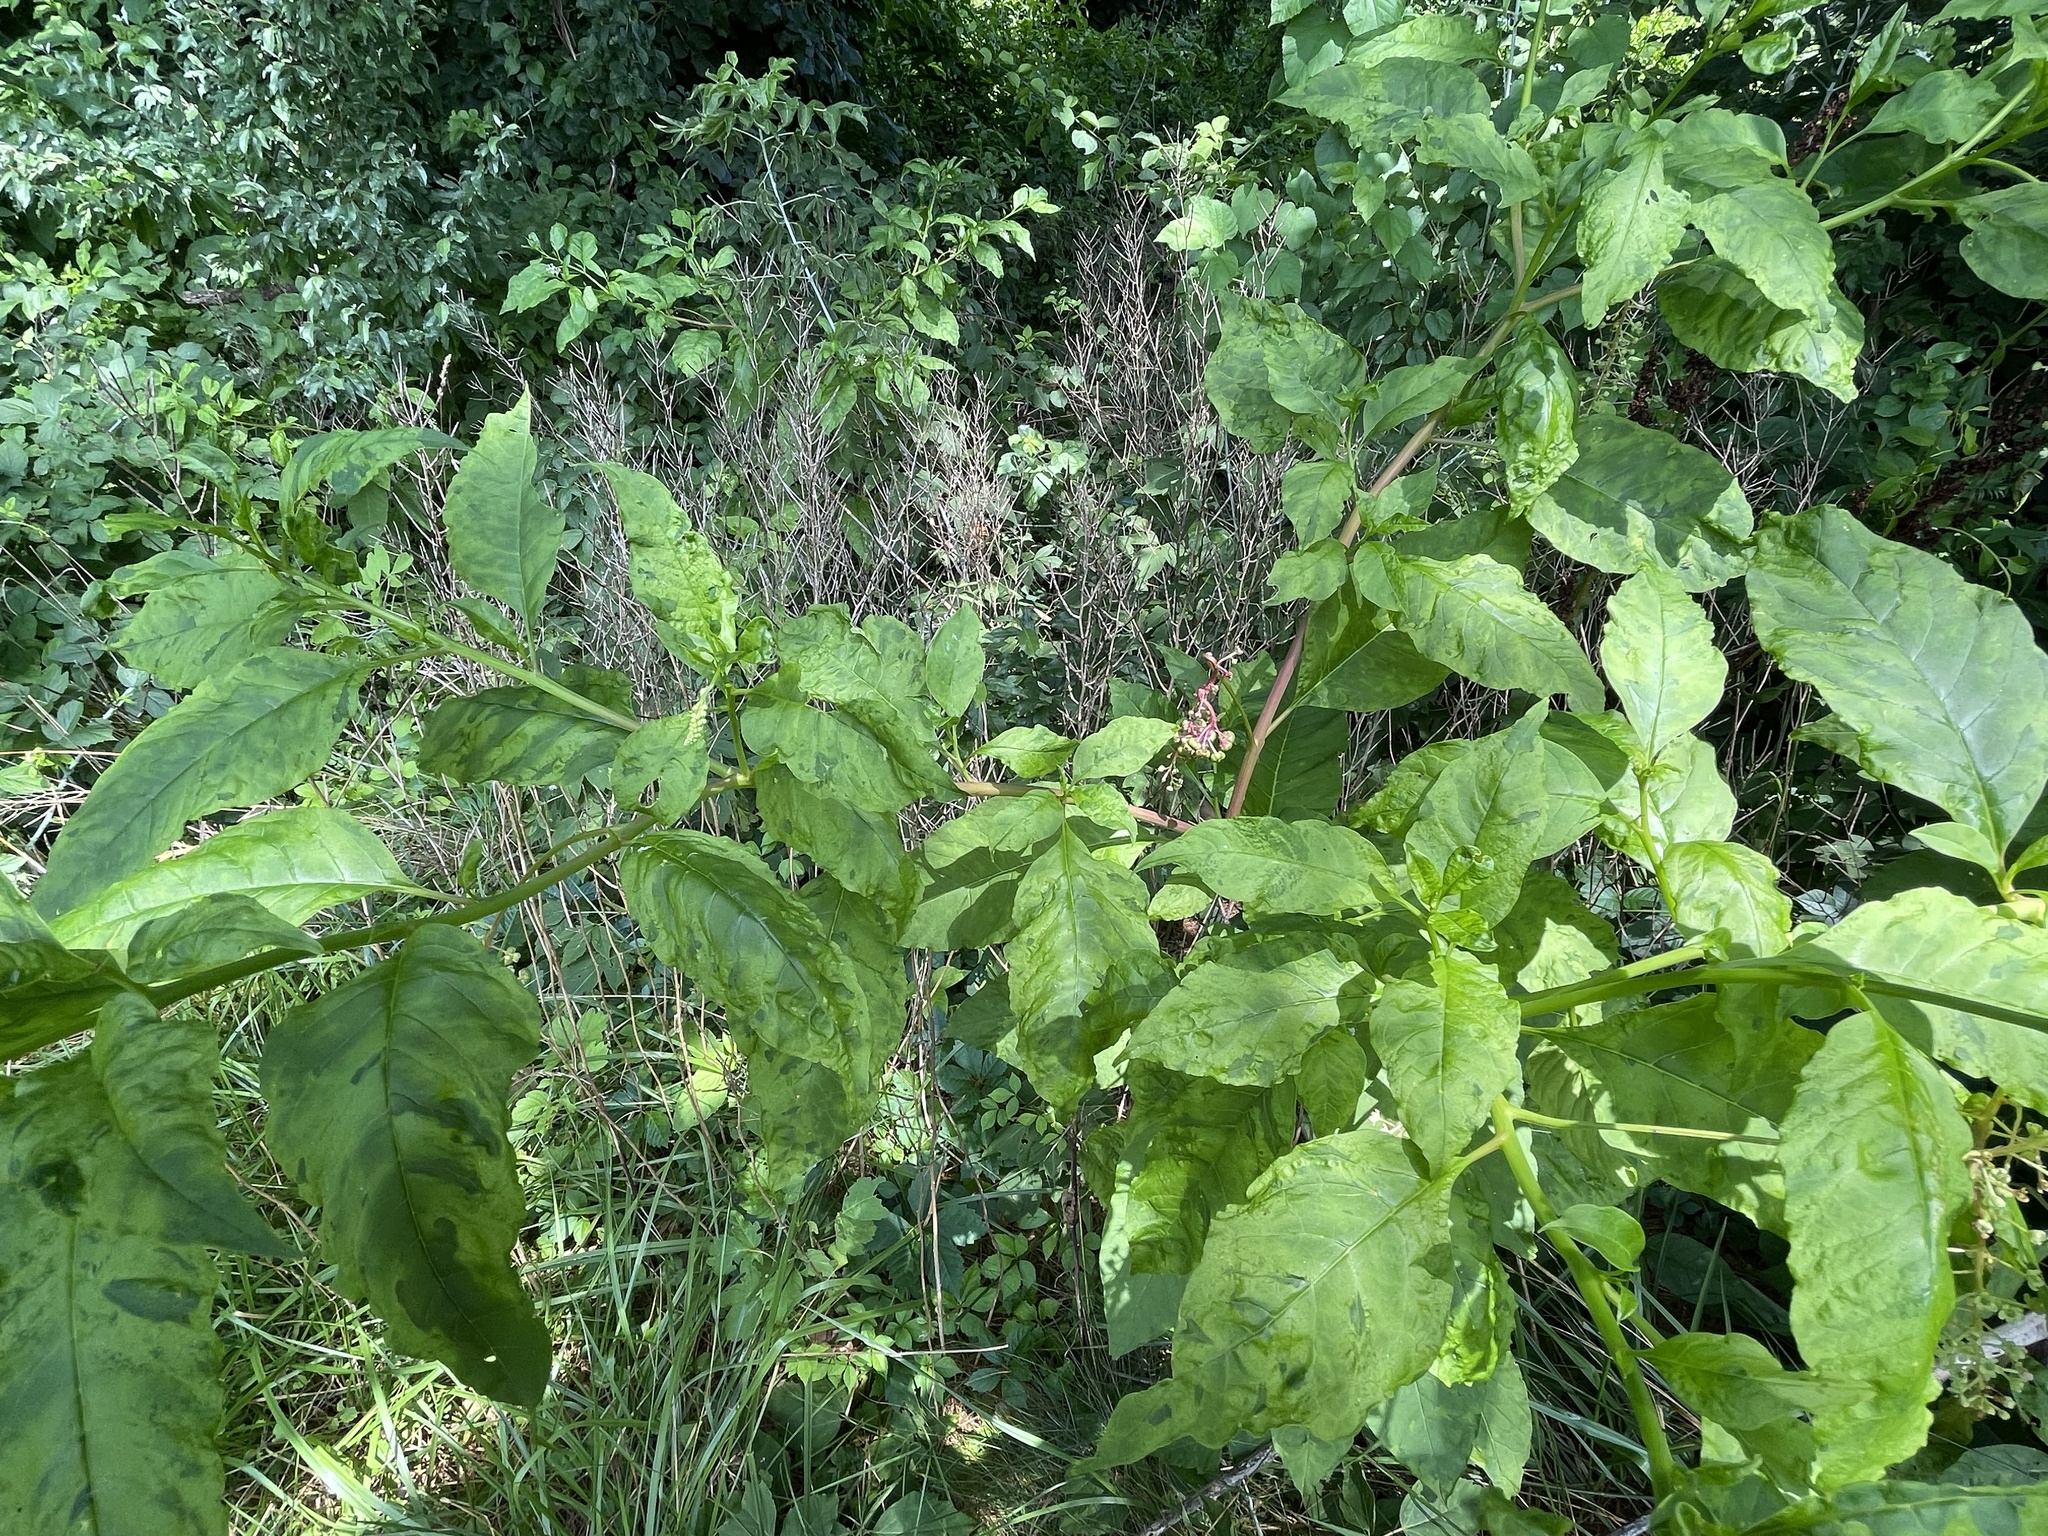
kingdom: Plantae
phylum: Tracheophyta
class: Magnoliopsida
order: Caryophyllales
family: Phytolaccaceae
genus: Phytolacca
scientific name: Phytolacca americana
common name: American pokeweed
